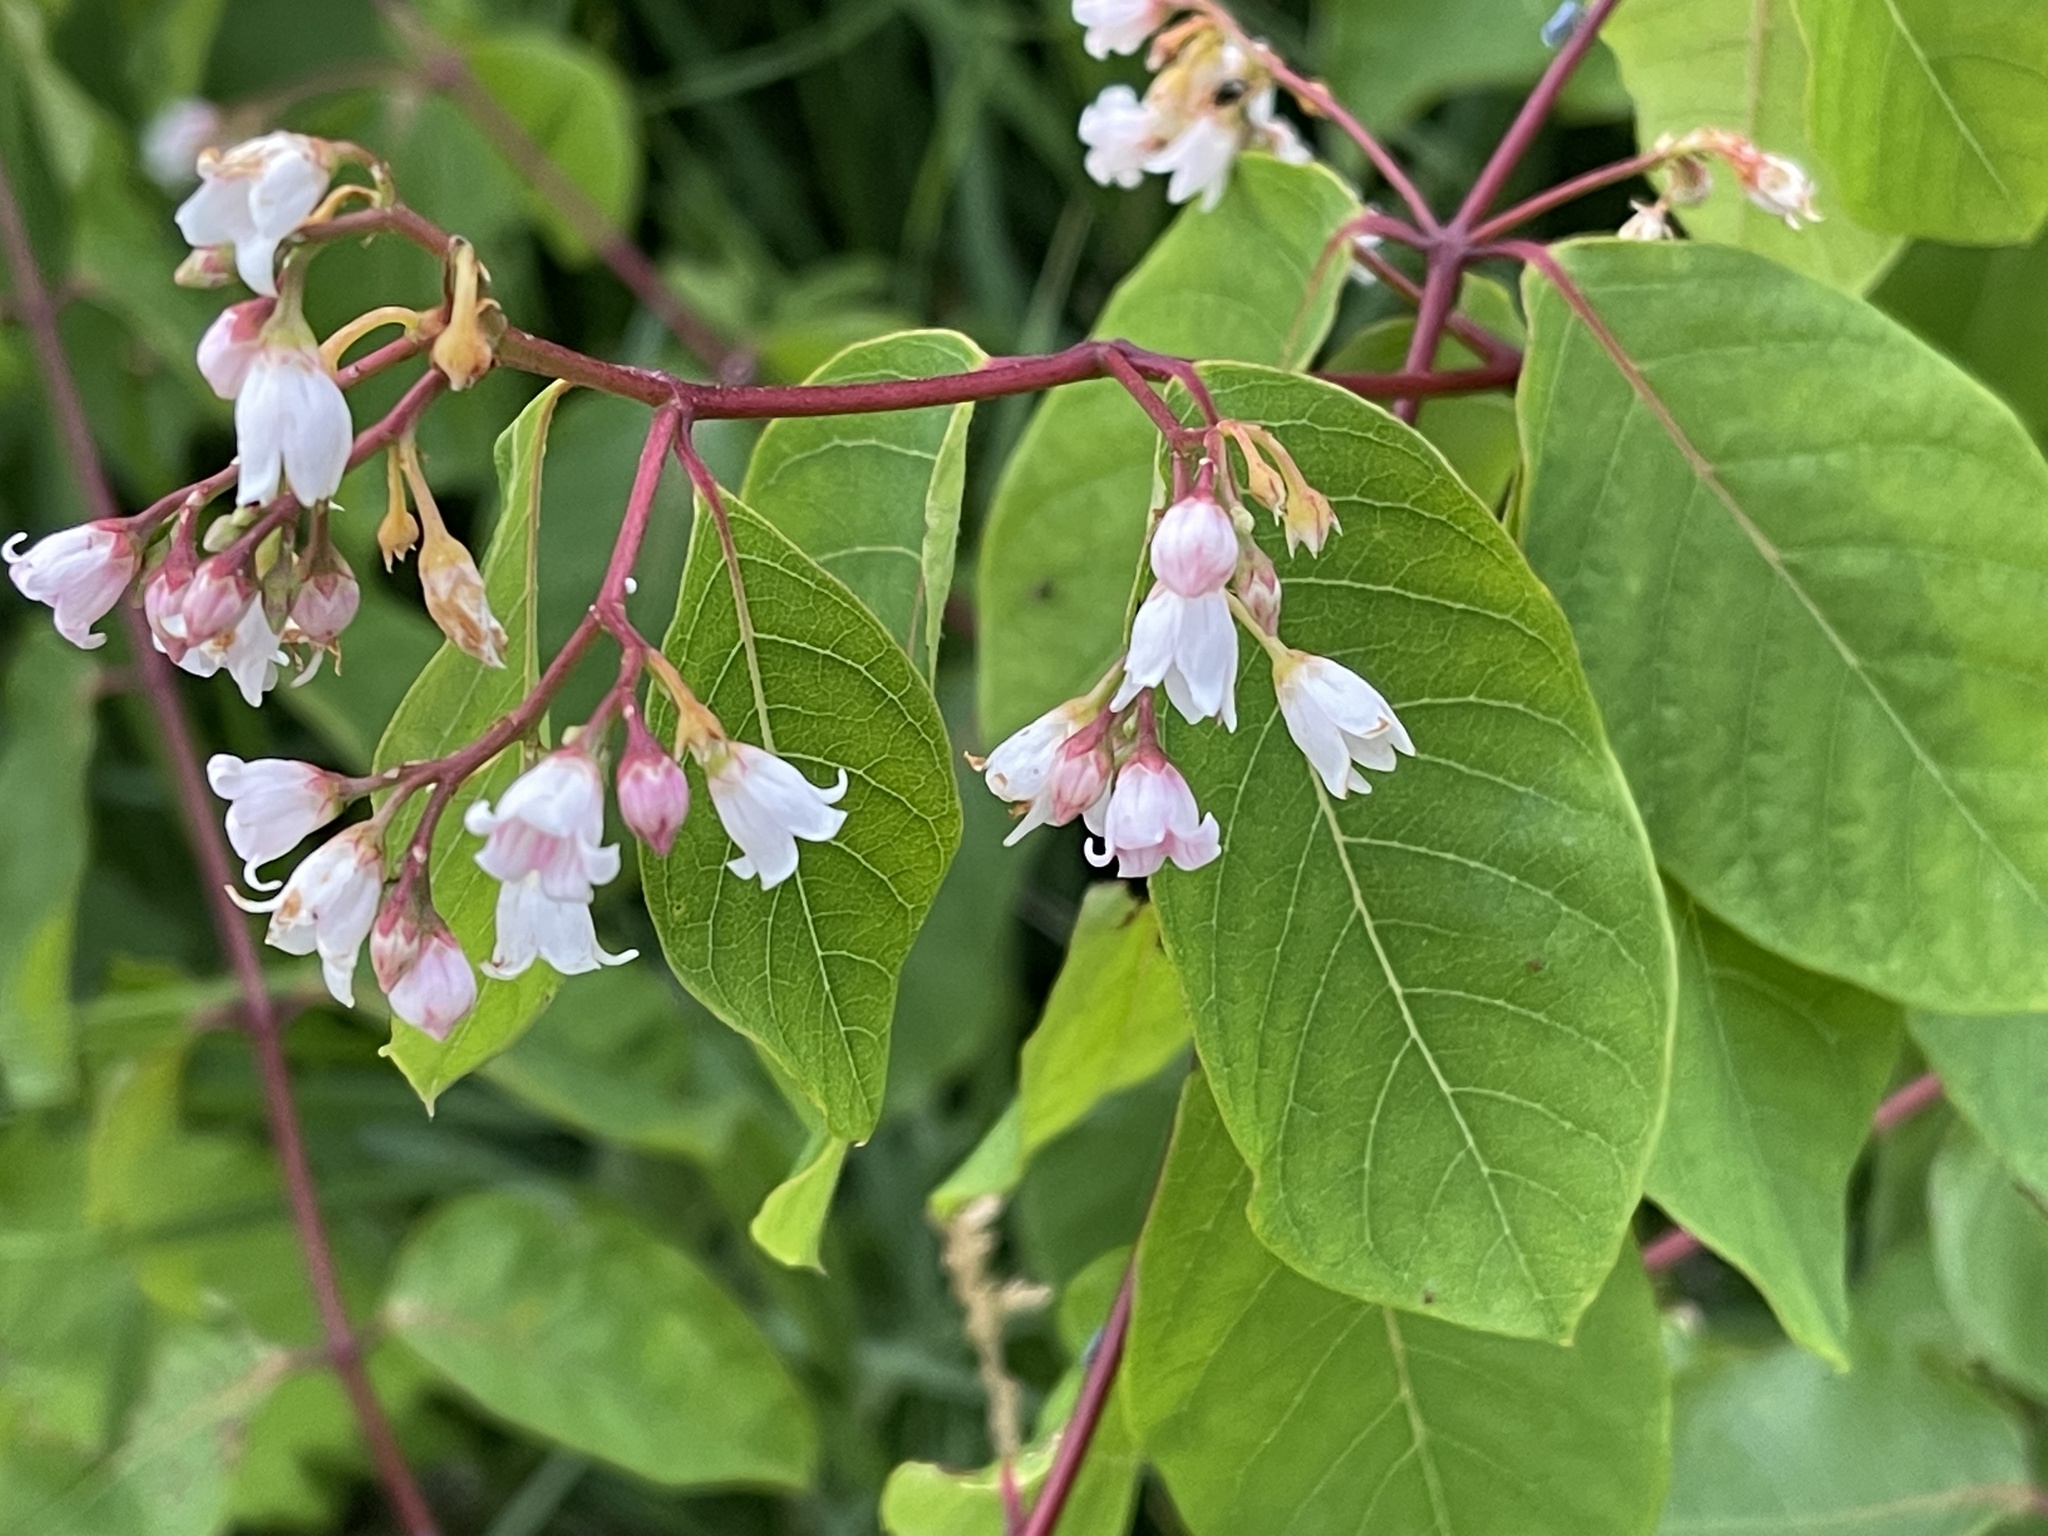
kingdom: Plantae
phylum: Tracheophyta
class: Magnoliopsida
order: Gentianales
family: Apocynaceae
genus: Apocynum
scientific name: Apocynum androsaemifolium
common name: Spreading dogbane
